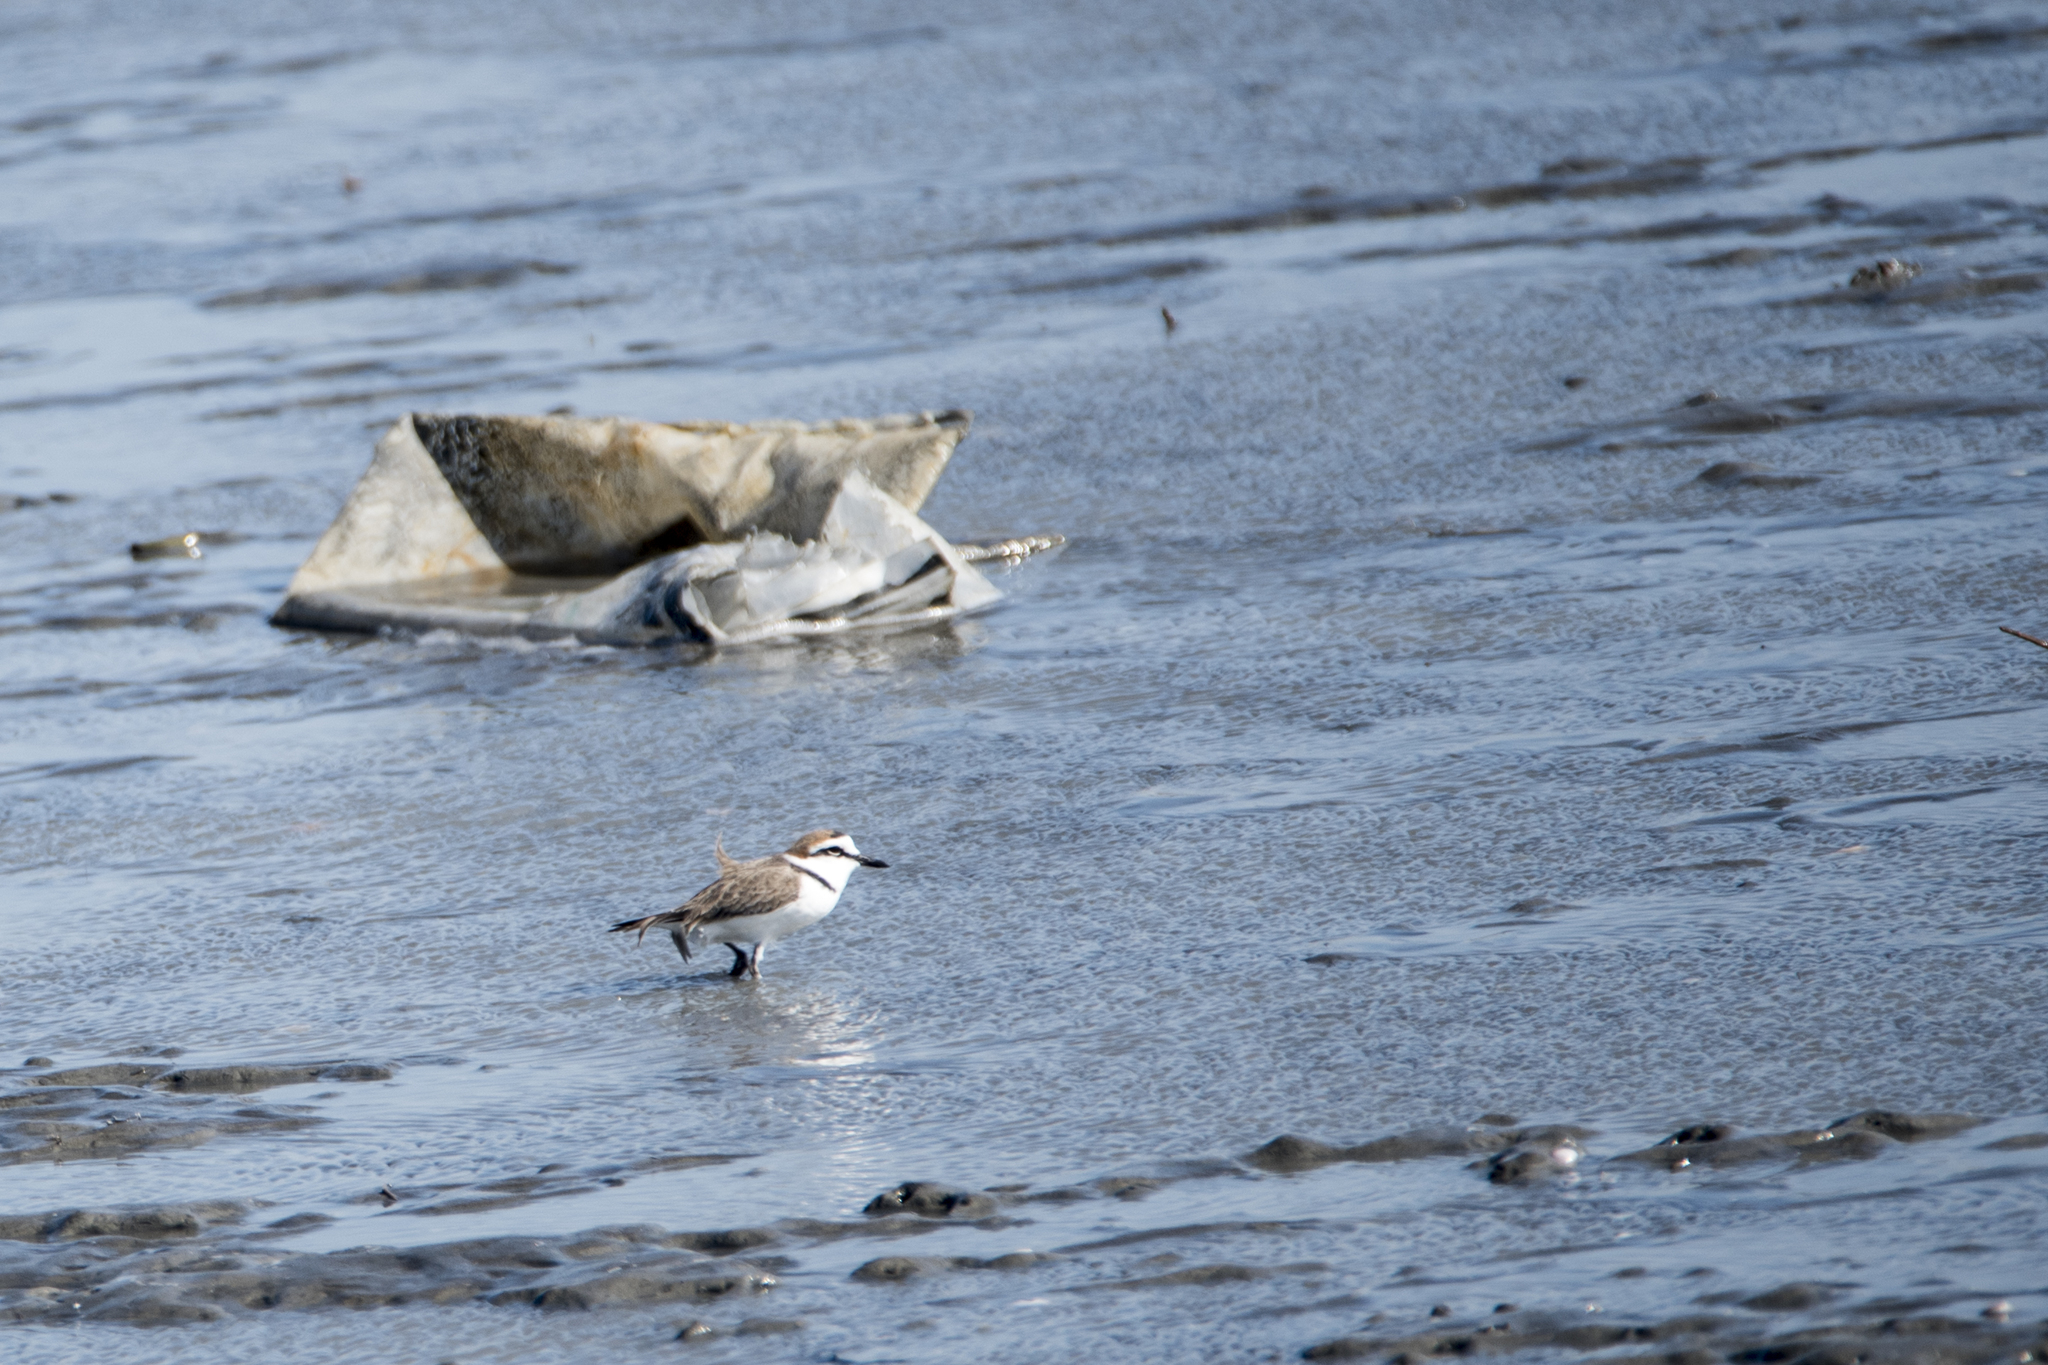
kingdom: Animalia
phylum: Chordata
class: Aves
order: Charadriiformes
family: Charadriidae
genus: Charadrius
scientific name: Charadrius alexandrinus
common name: Kentish plover
